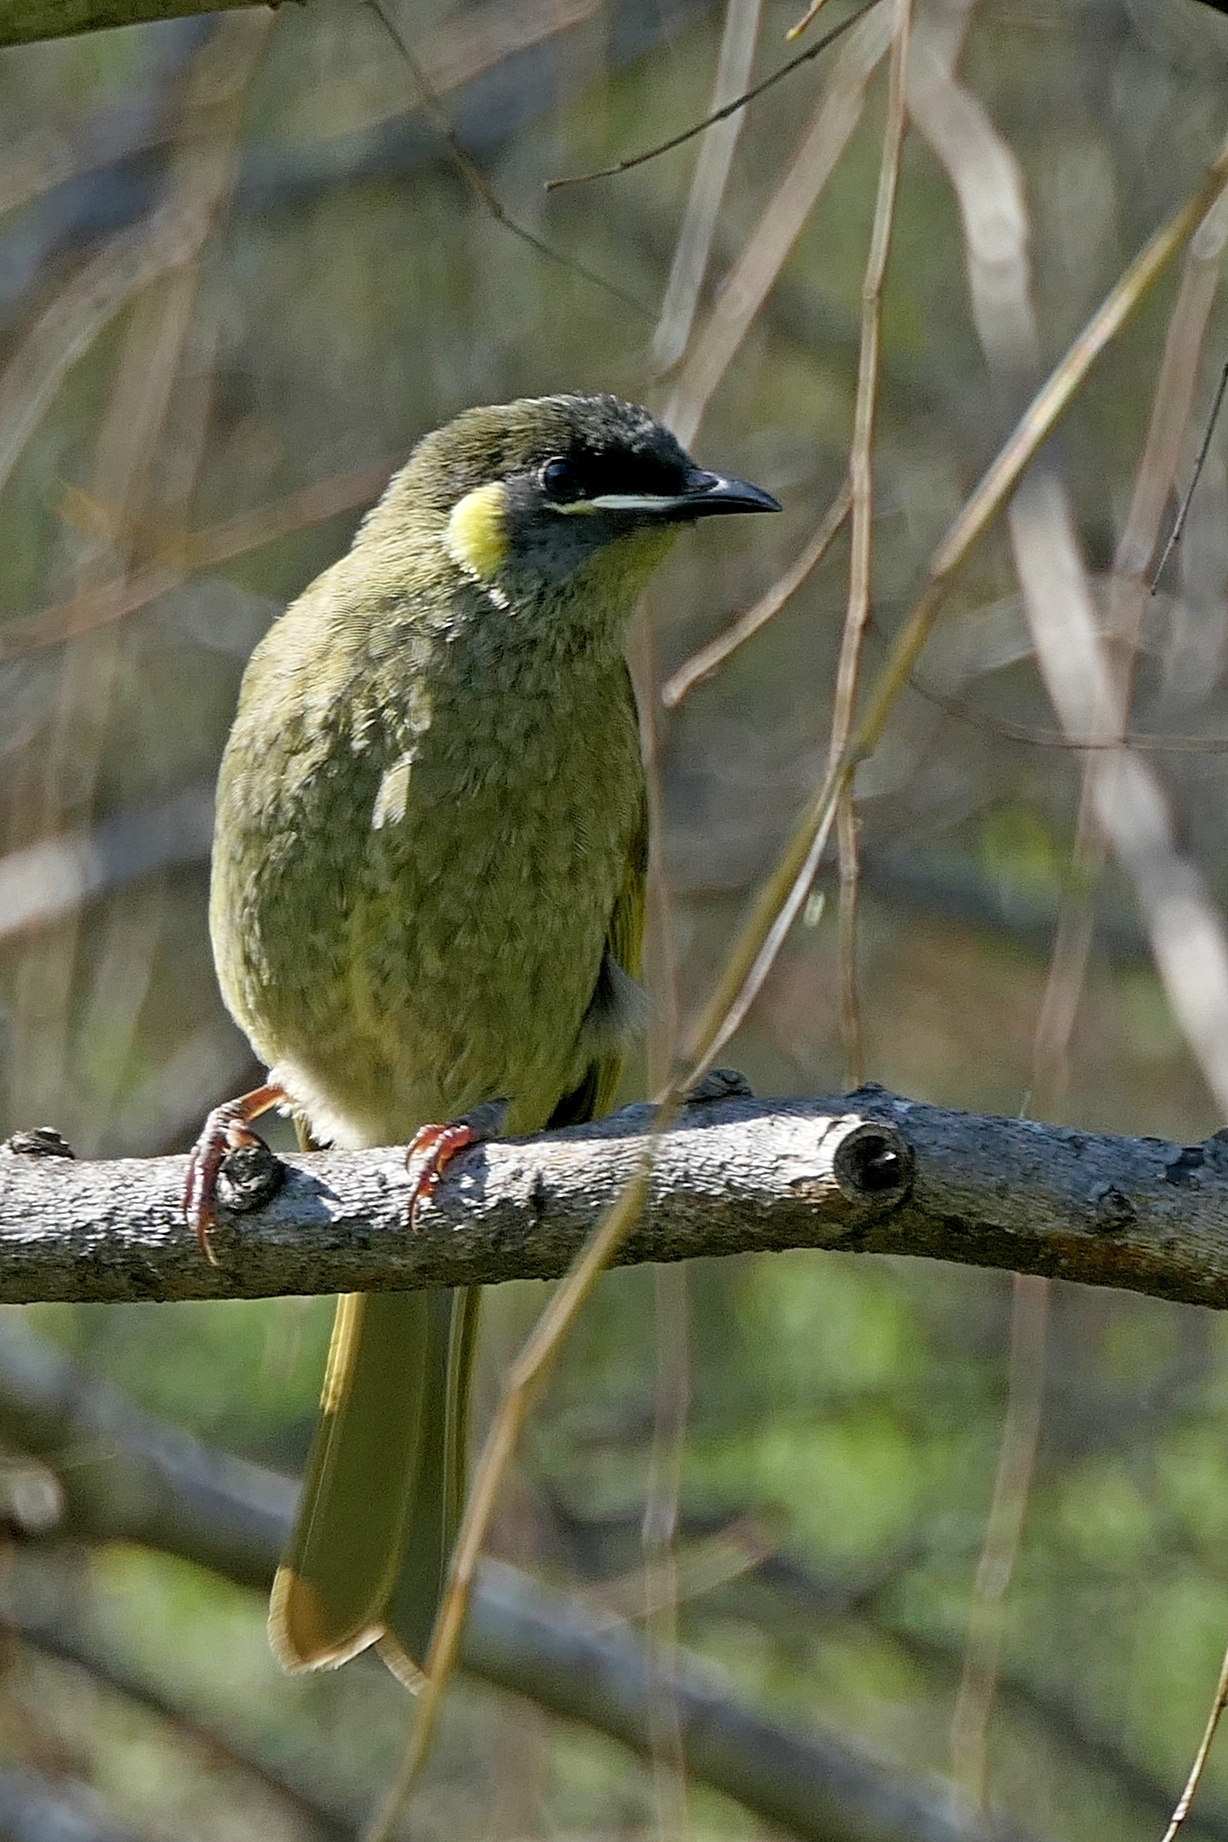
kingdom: Animalia
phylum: Chordata
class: Aves
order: Passeriformes
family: Meliphagidae
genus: Meliphaga
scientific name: Meliphaga lewinii
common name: Lewin's honeyeater
